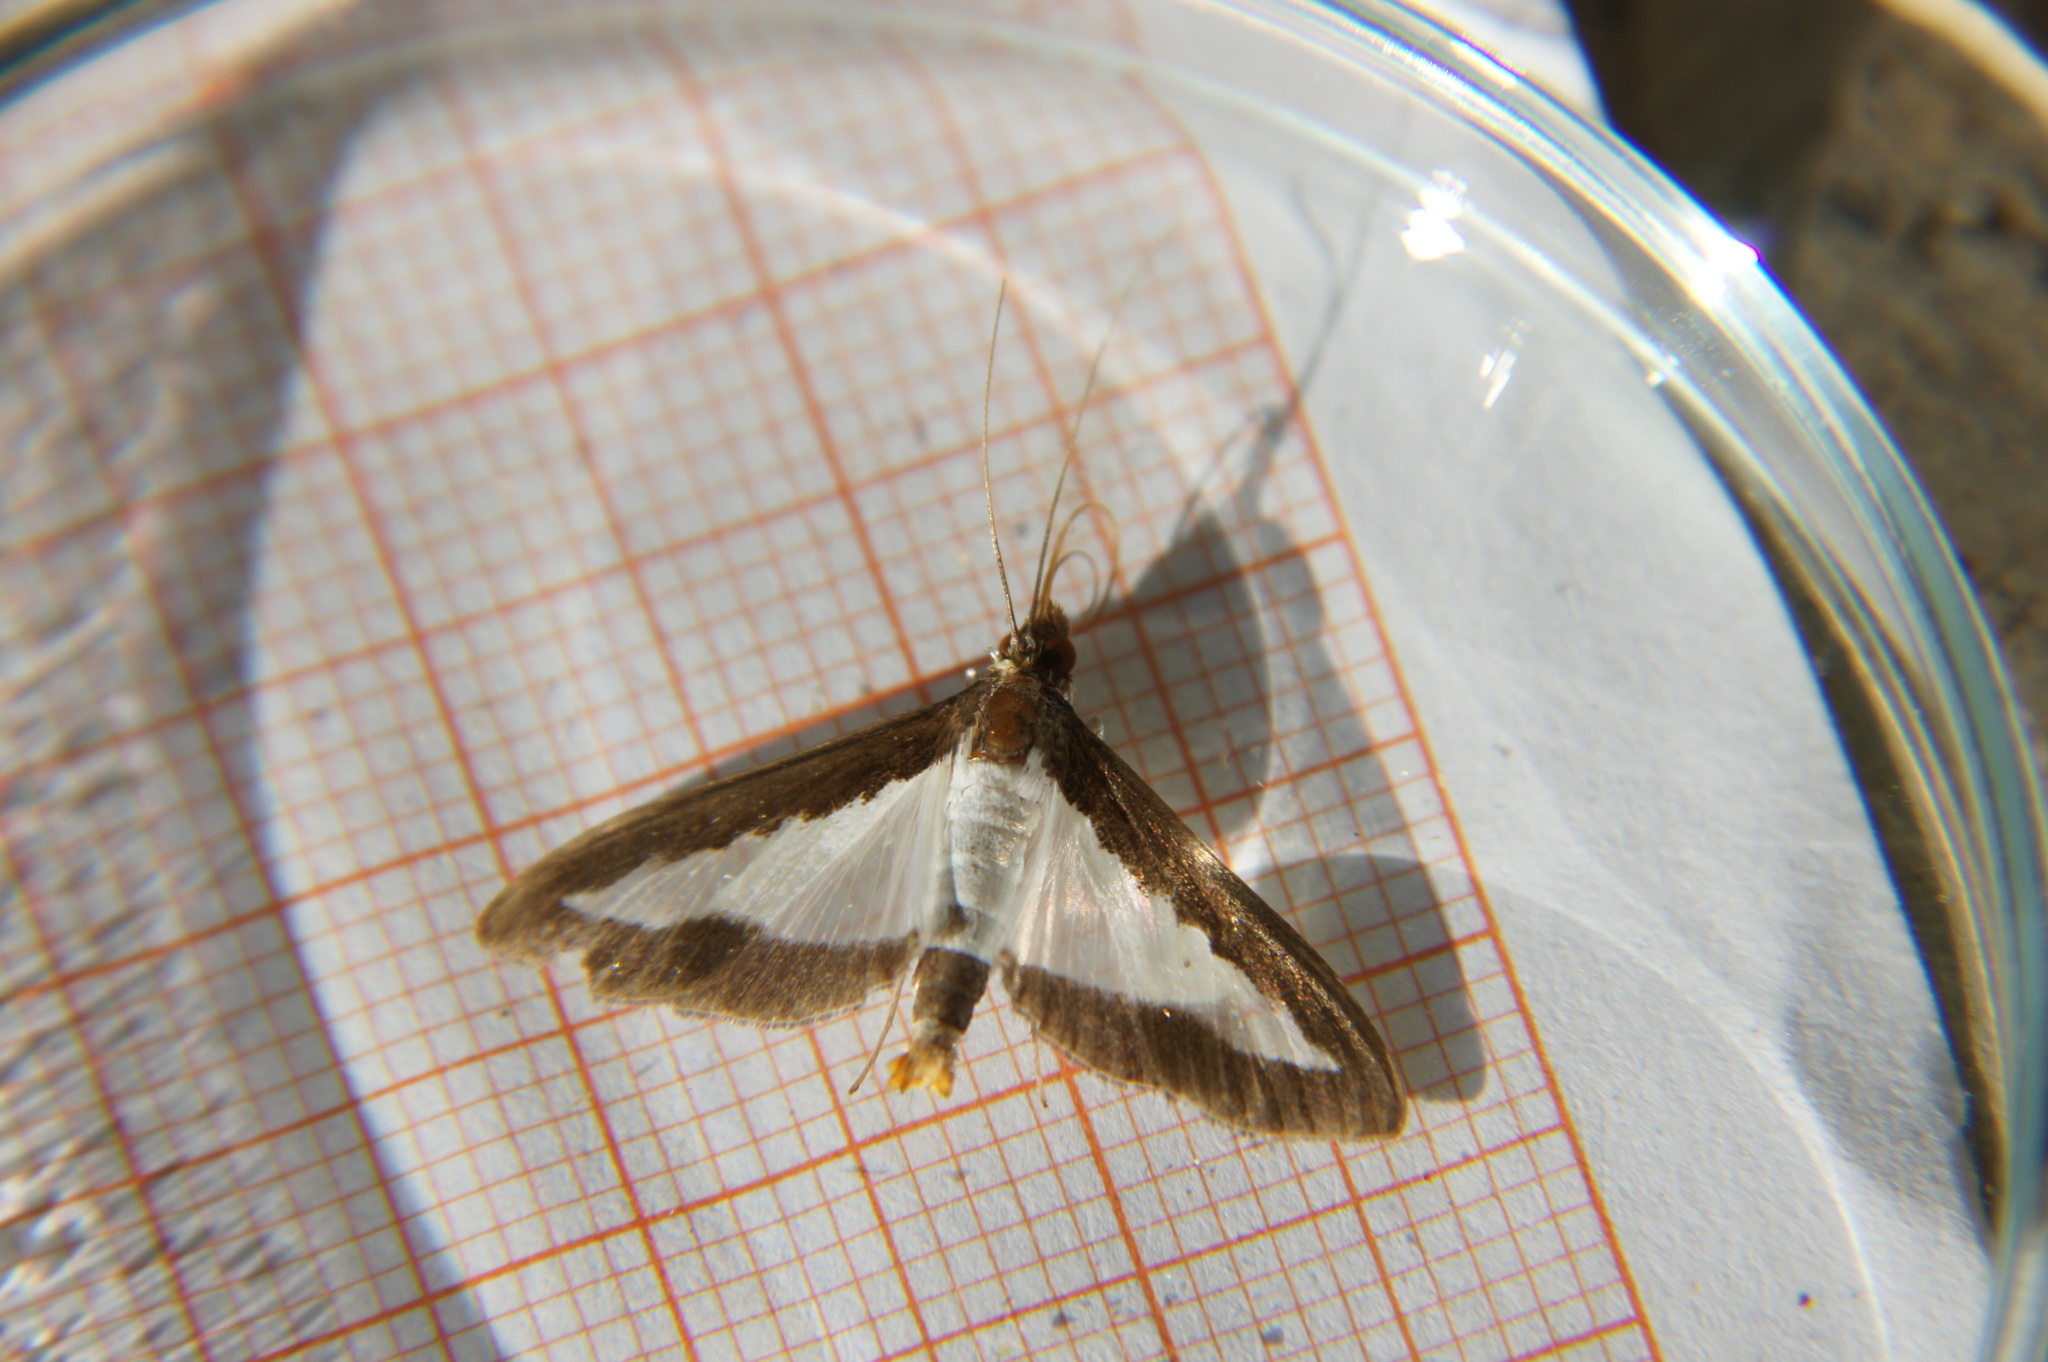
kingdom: Animalia
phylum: Arthropoda
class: Insecta
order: Lepidoptera
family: Crambidae
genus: Diaphania
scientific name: Diaphania indica
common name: Cucumber moth
